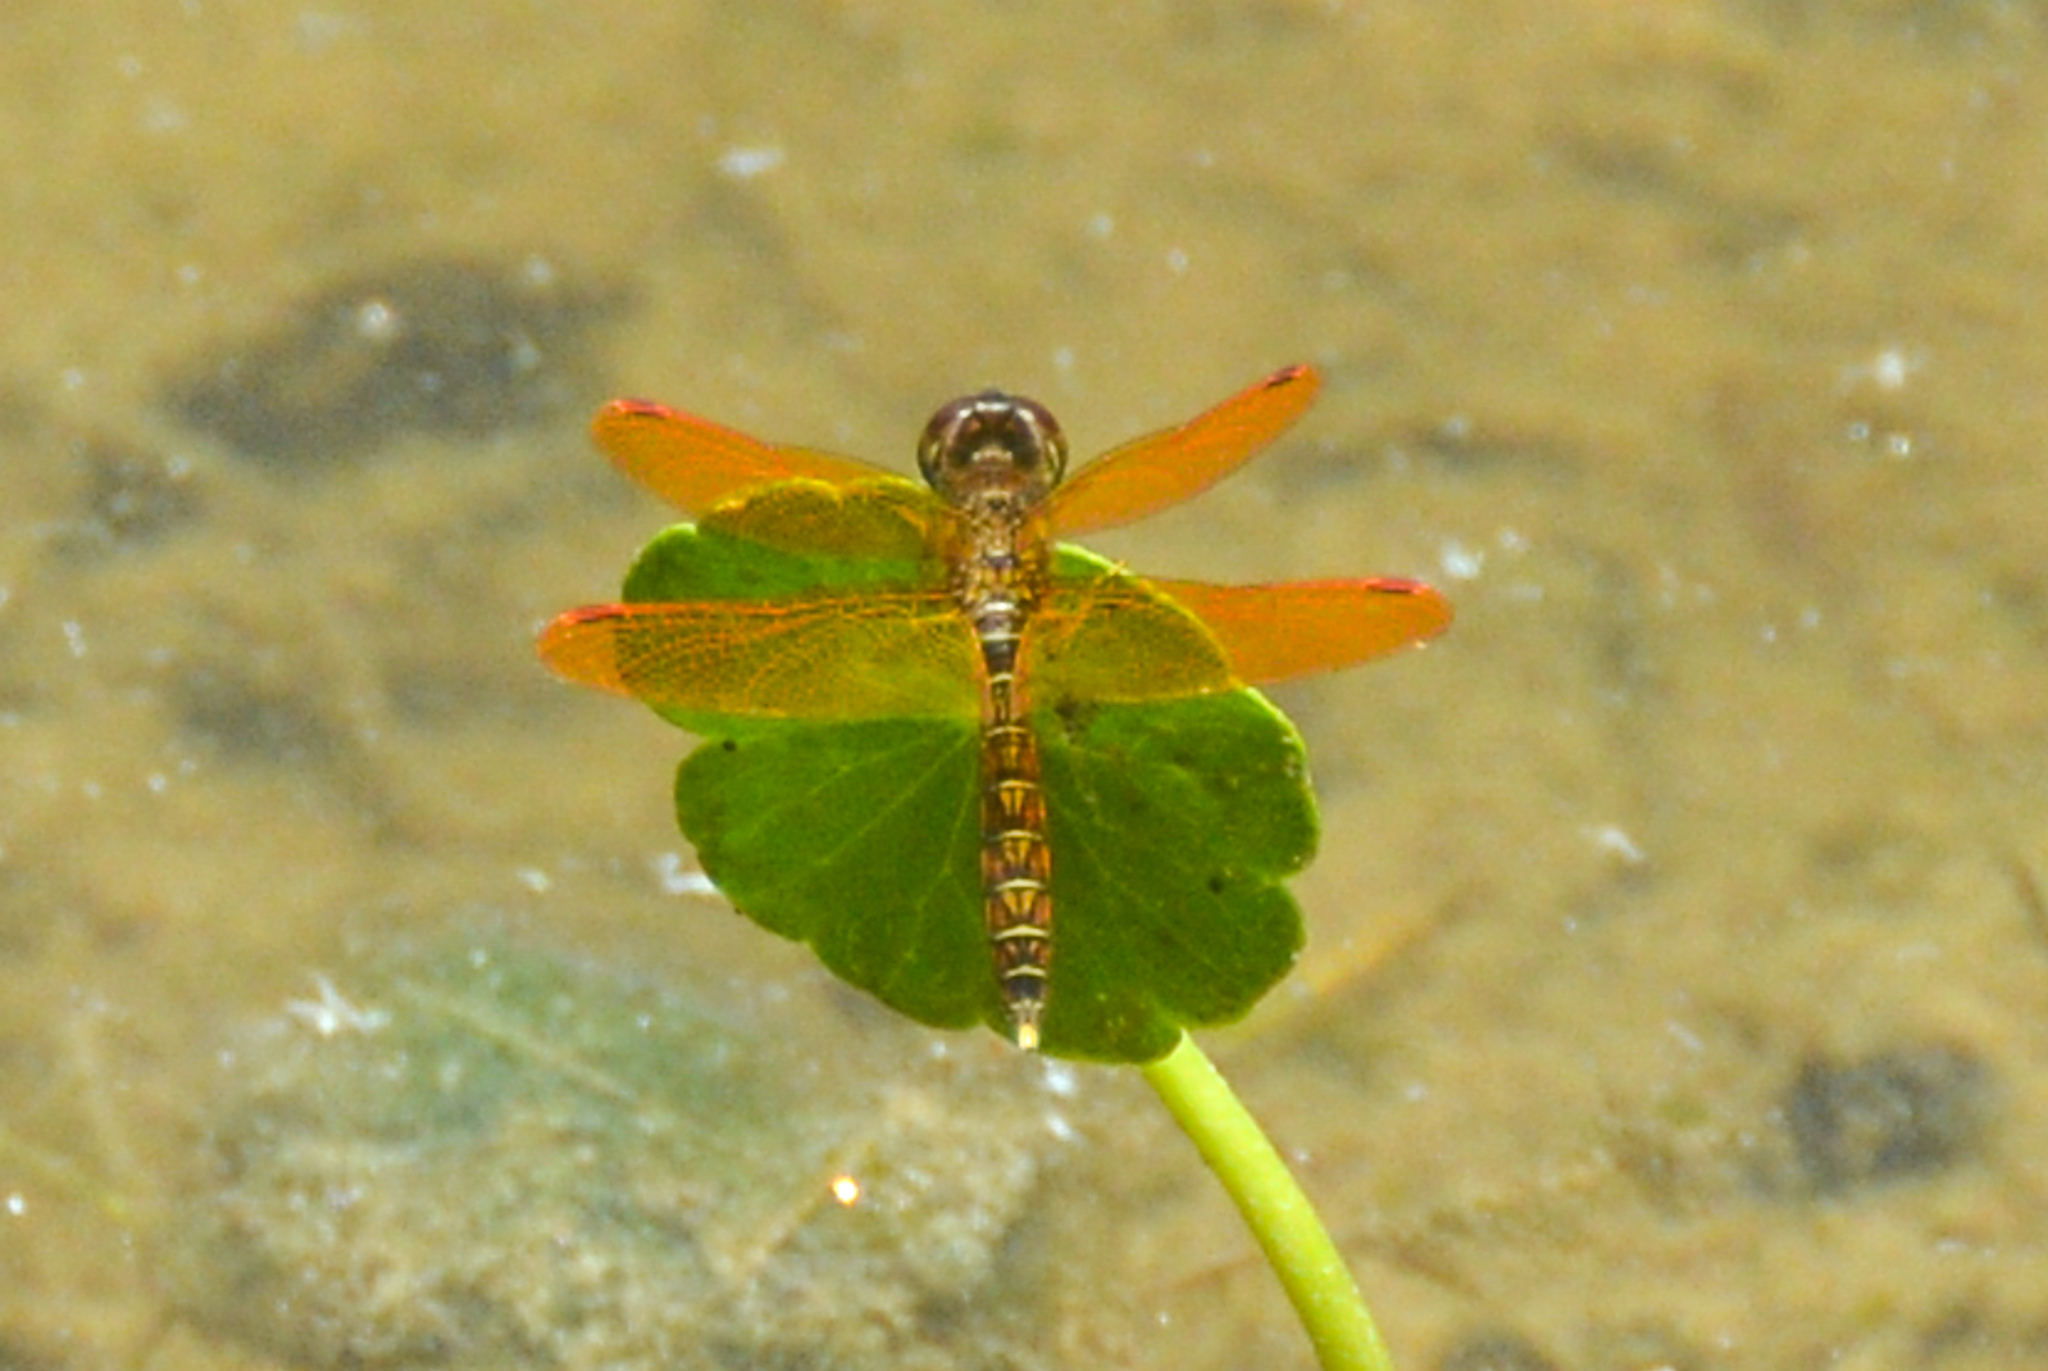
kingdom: Animalia
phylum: Arthropoda
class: Insecta
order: Odonata
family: Libellulidae
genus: Perithemis
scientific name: Perithemis tenera
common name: Eastern amberwing
